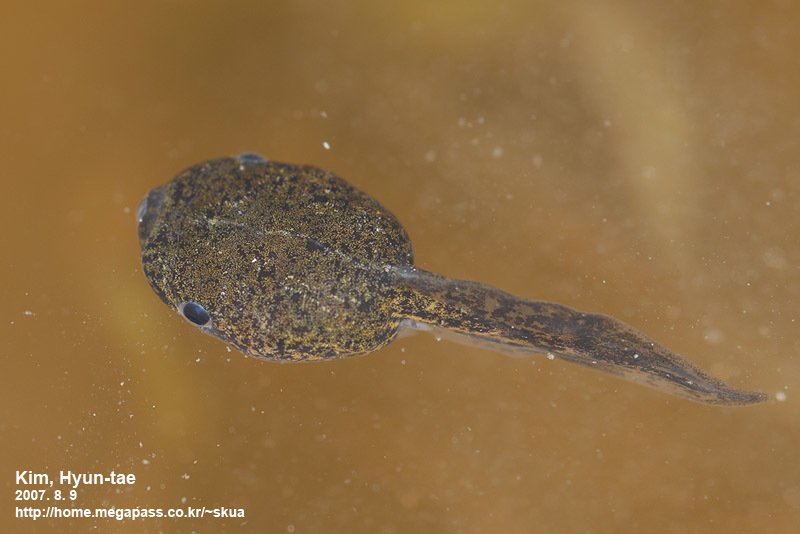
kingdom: Animalia
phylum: Chordata
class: Amphibia
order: Anura
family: Microhylidae
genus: Kaloula
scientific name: Kaloula borealis
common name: Boreal digging frog
